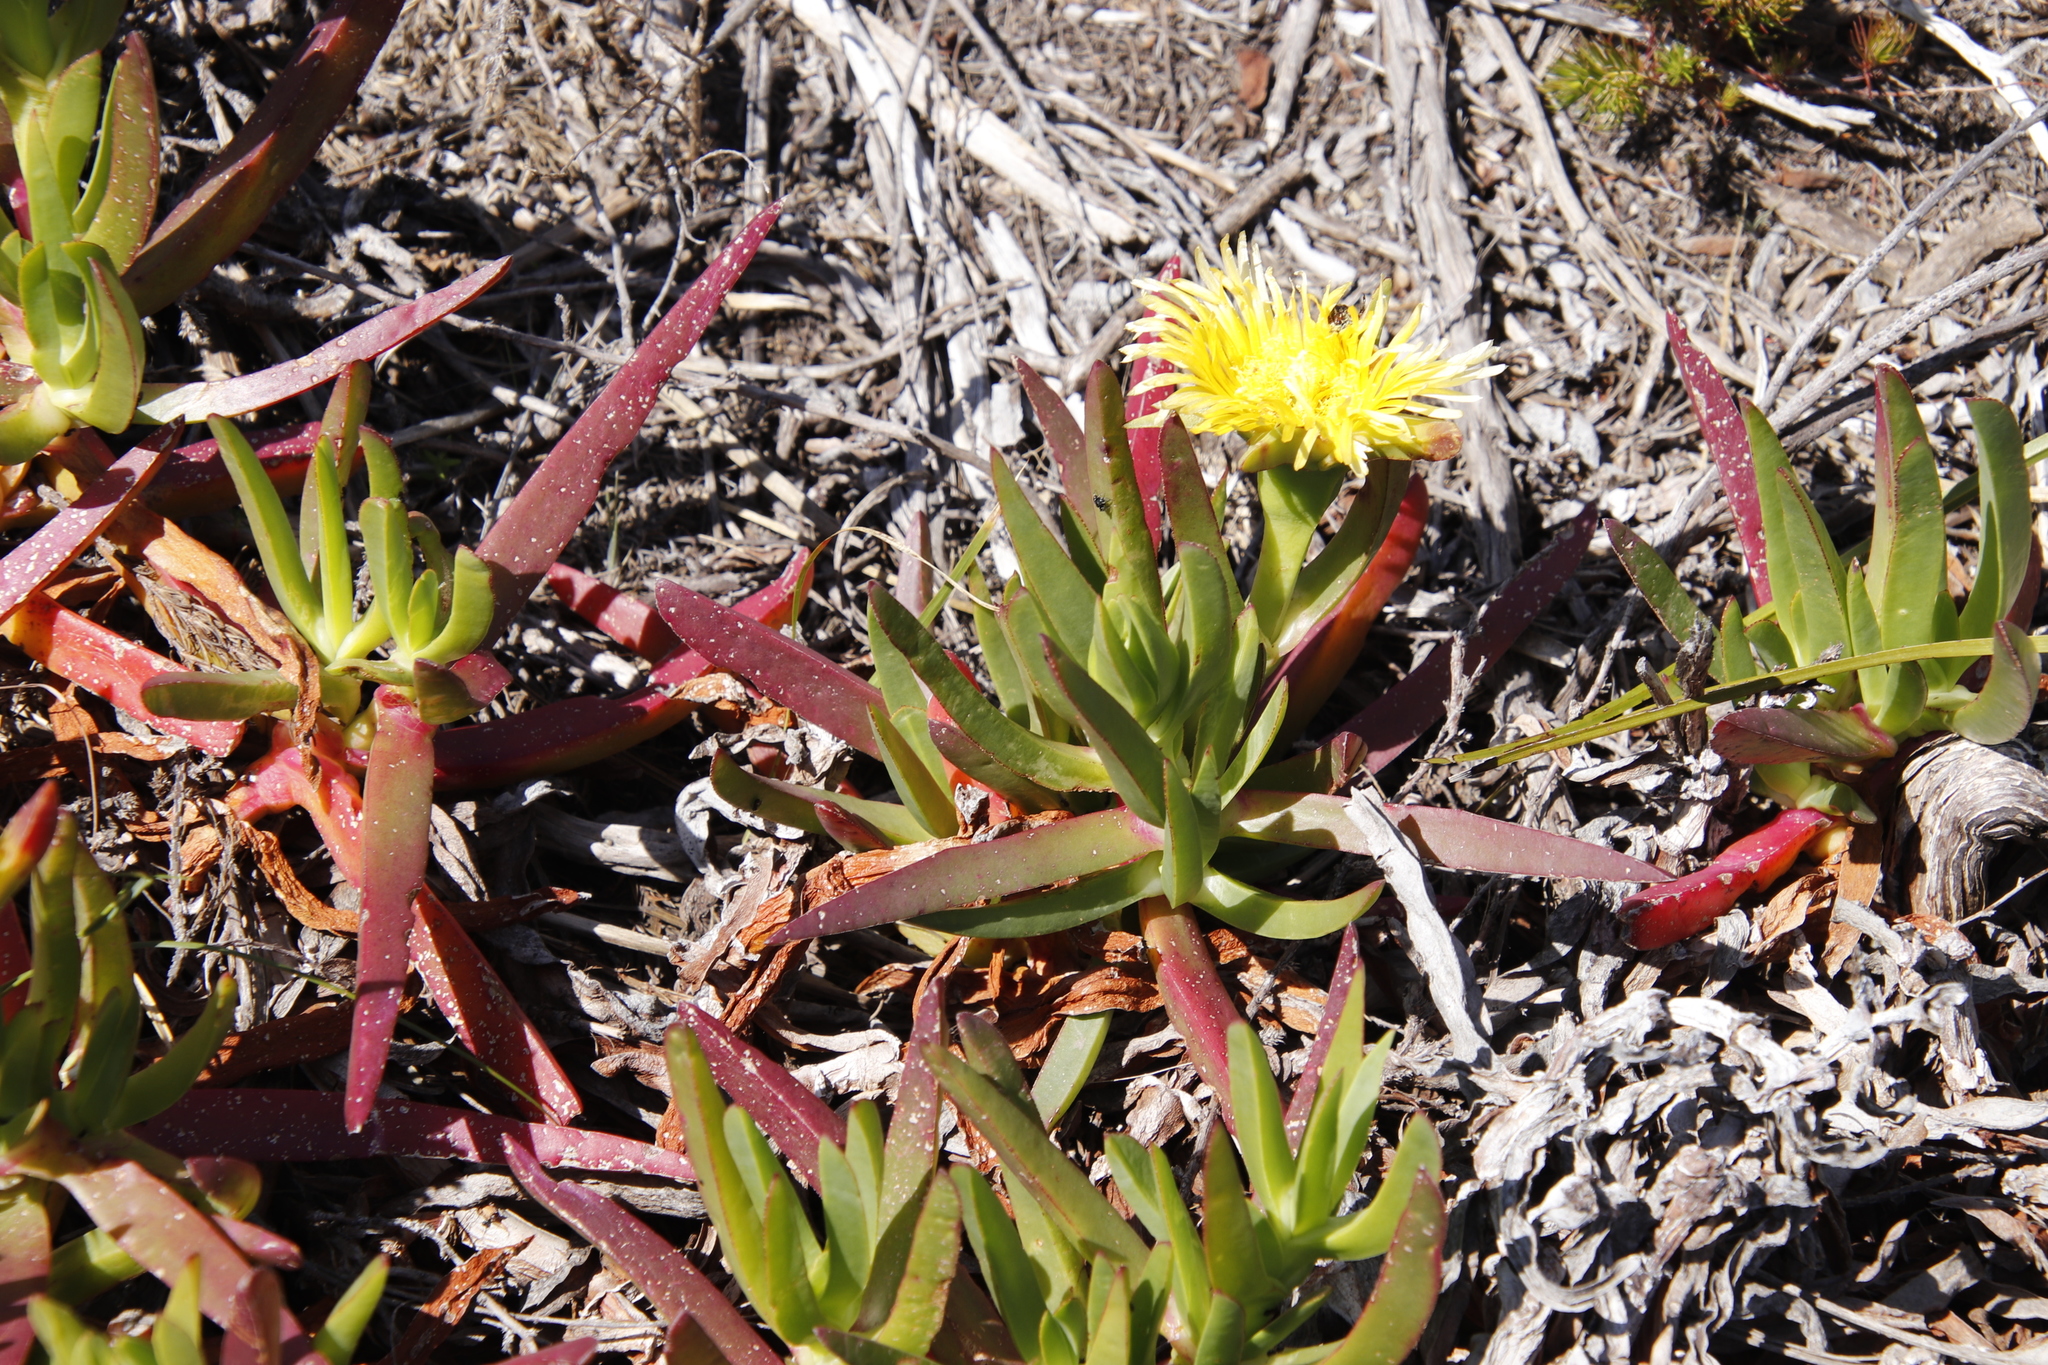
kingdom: Plantae
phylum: Tracheophyta
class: Magnoliopsida
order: Caryophyllales
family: Aizoaceae
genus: Carpobrotus
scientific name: Carpobrotus edulis
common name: Hottentot-fig
